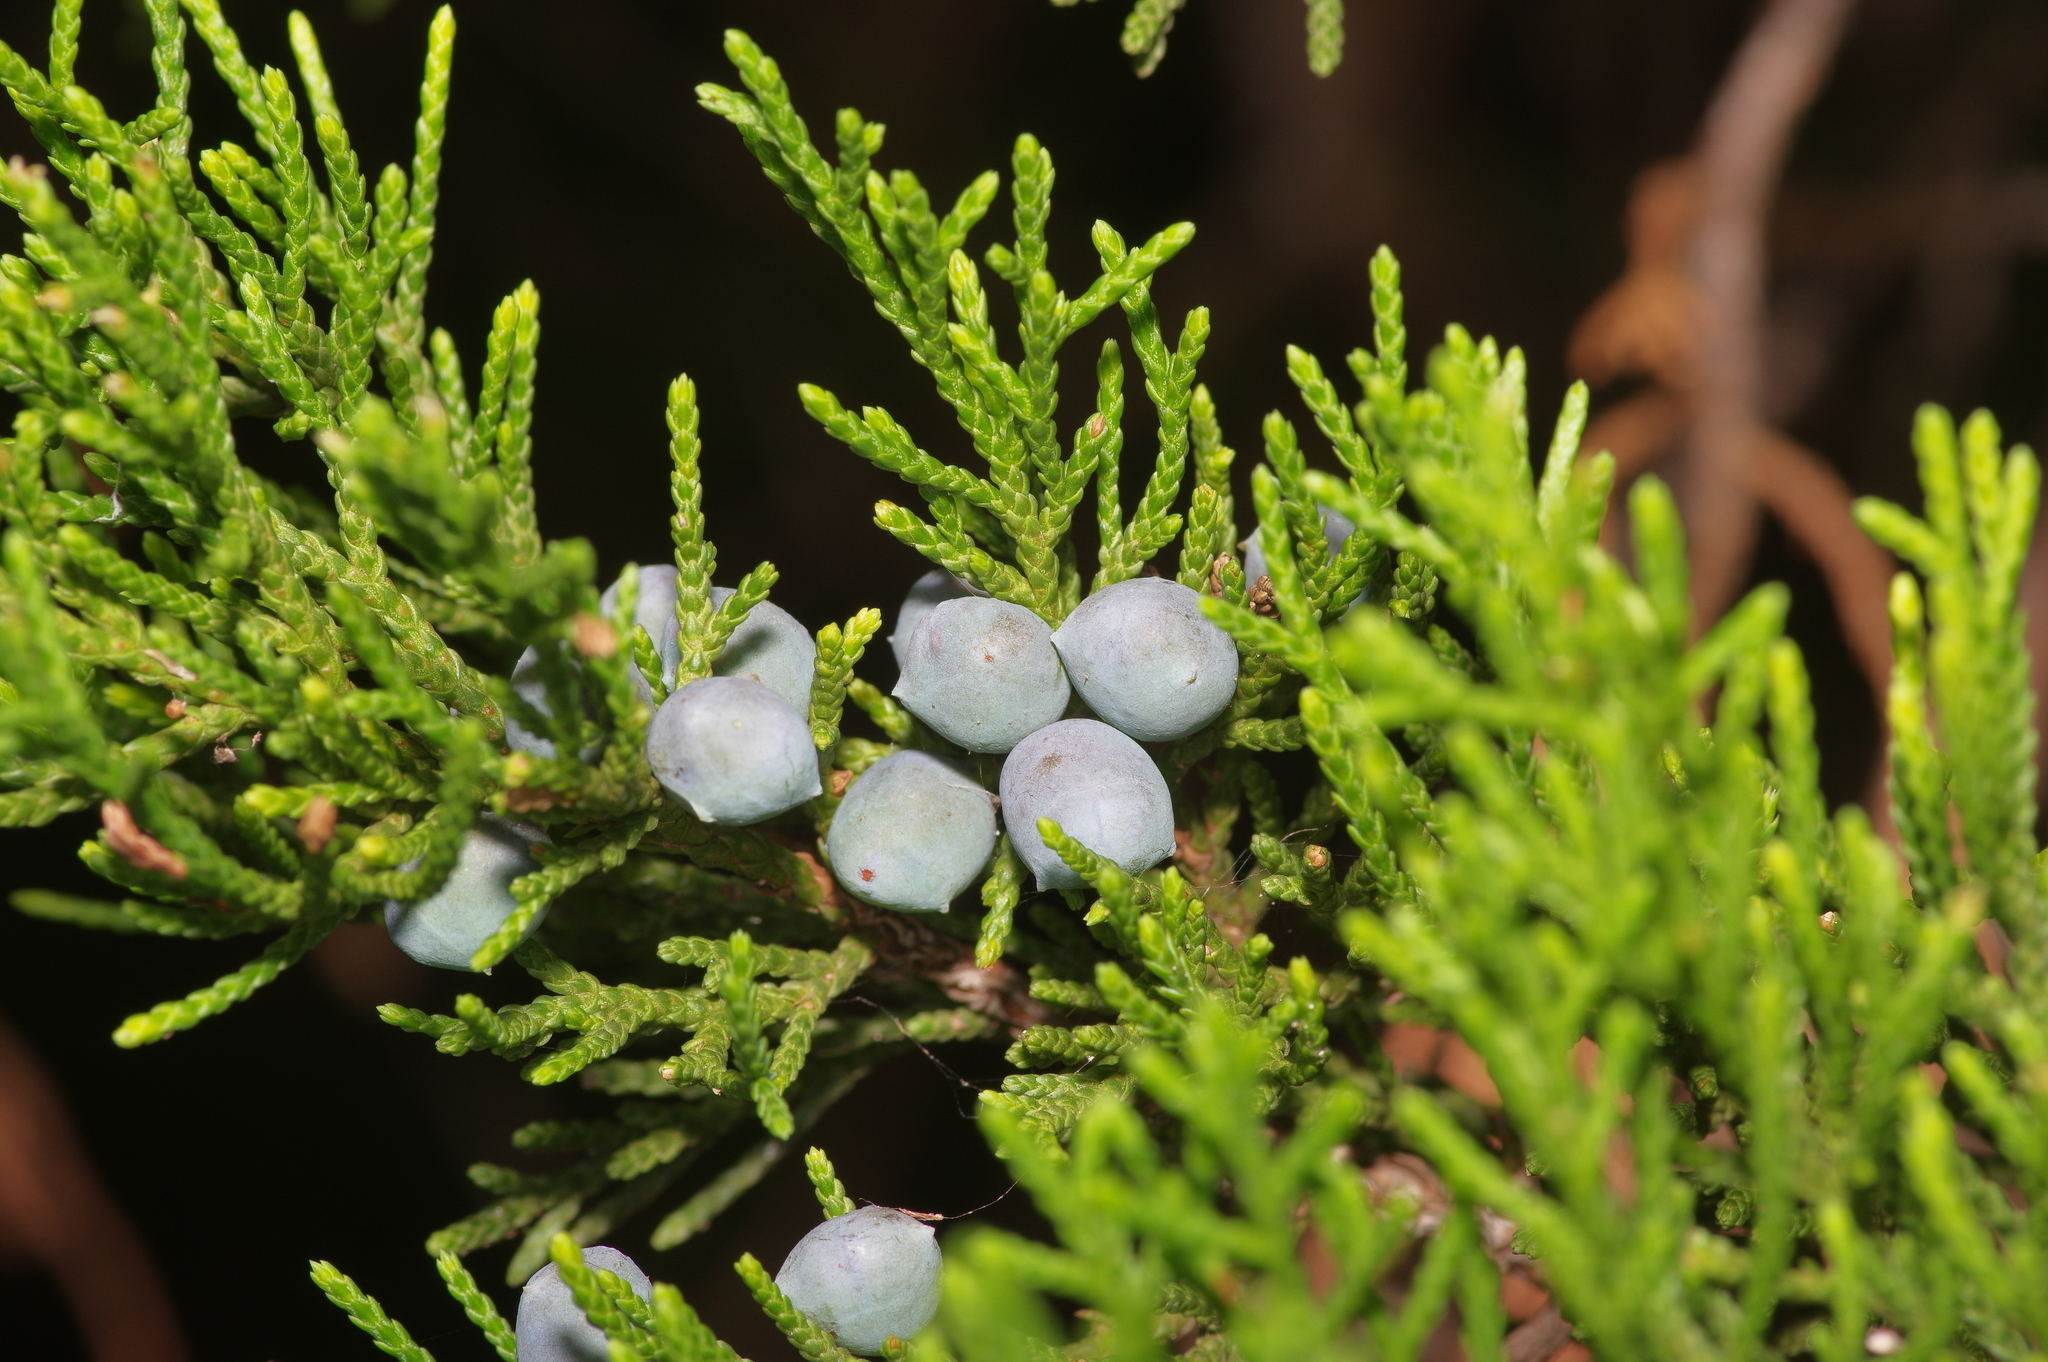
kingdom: Plantae
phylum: Tracheophyta
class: Pinopsida
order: Pinales
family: Cupressaceae
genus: Juniperus
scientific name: Juniperus ashei
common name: Mexican juniper
